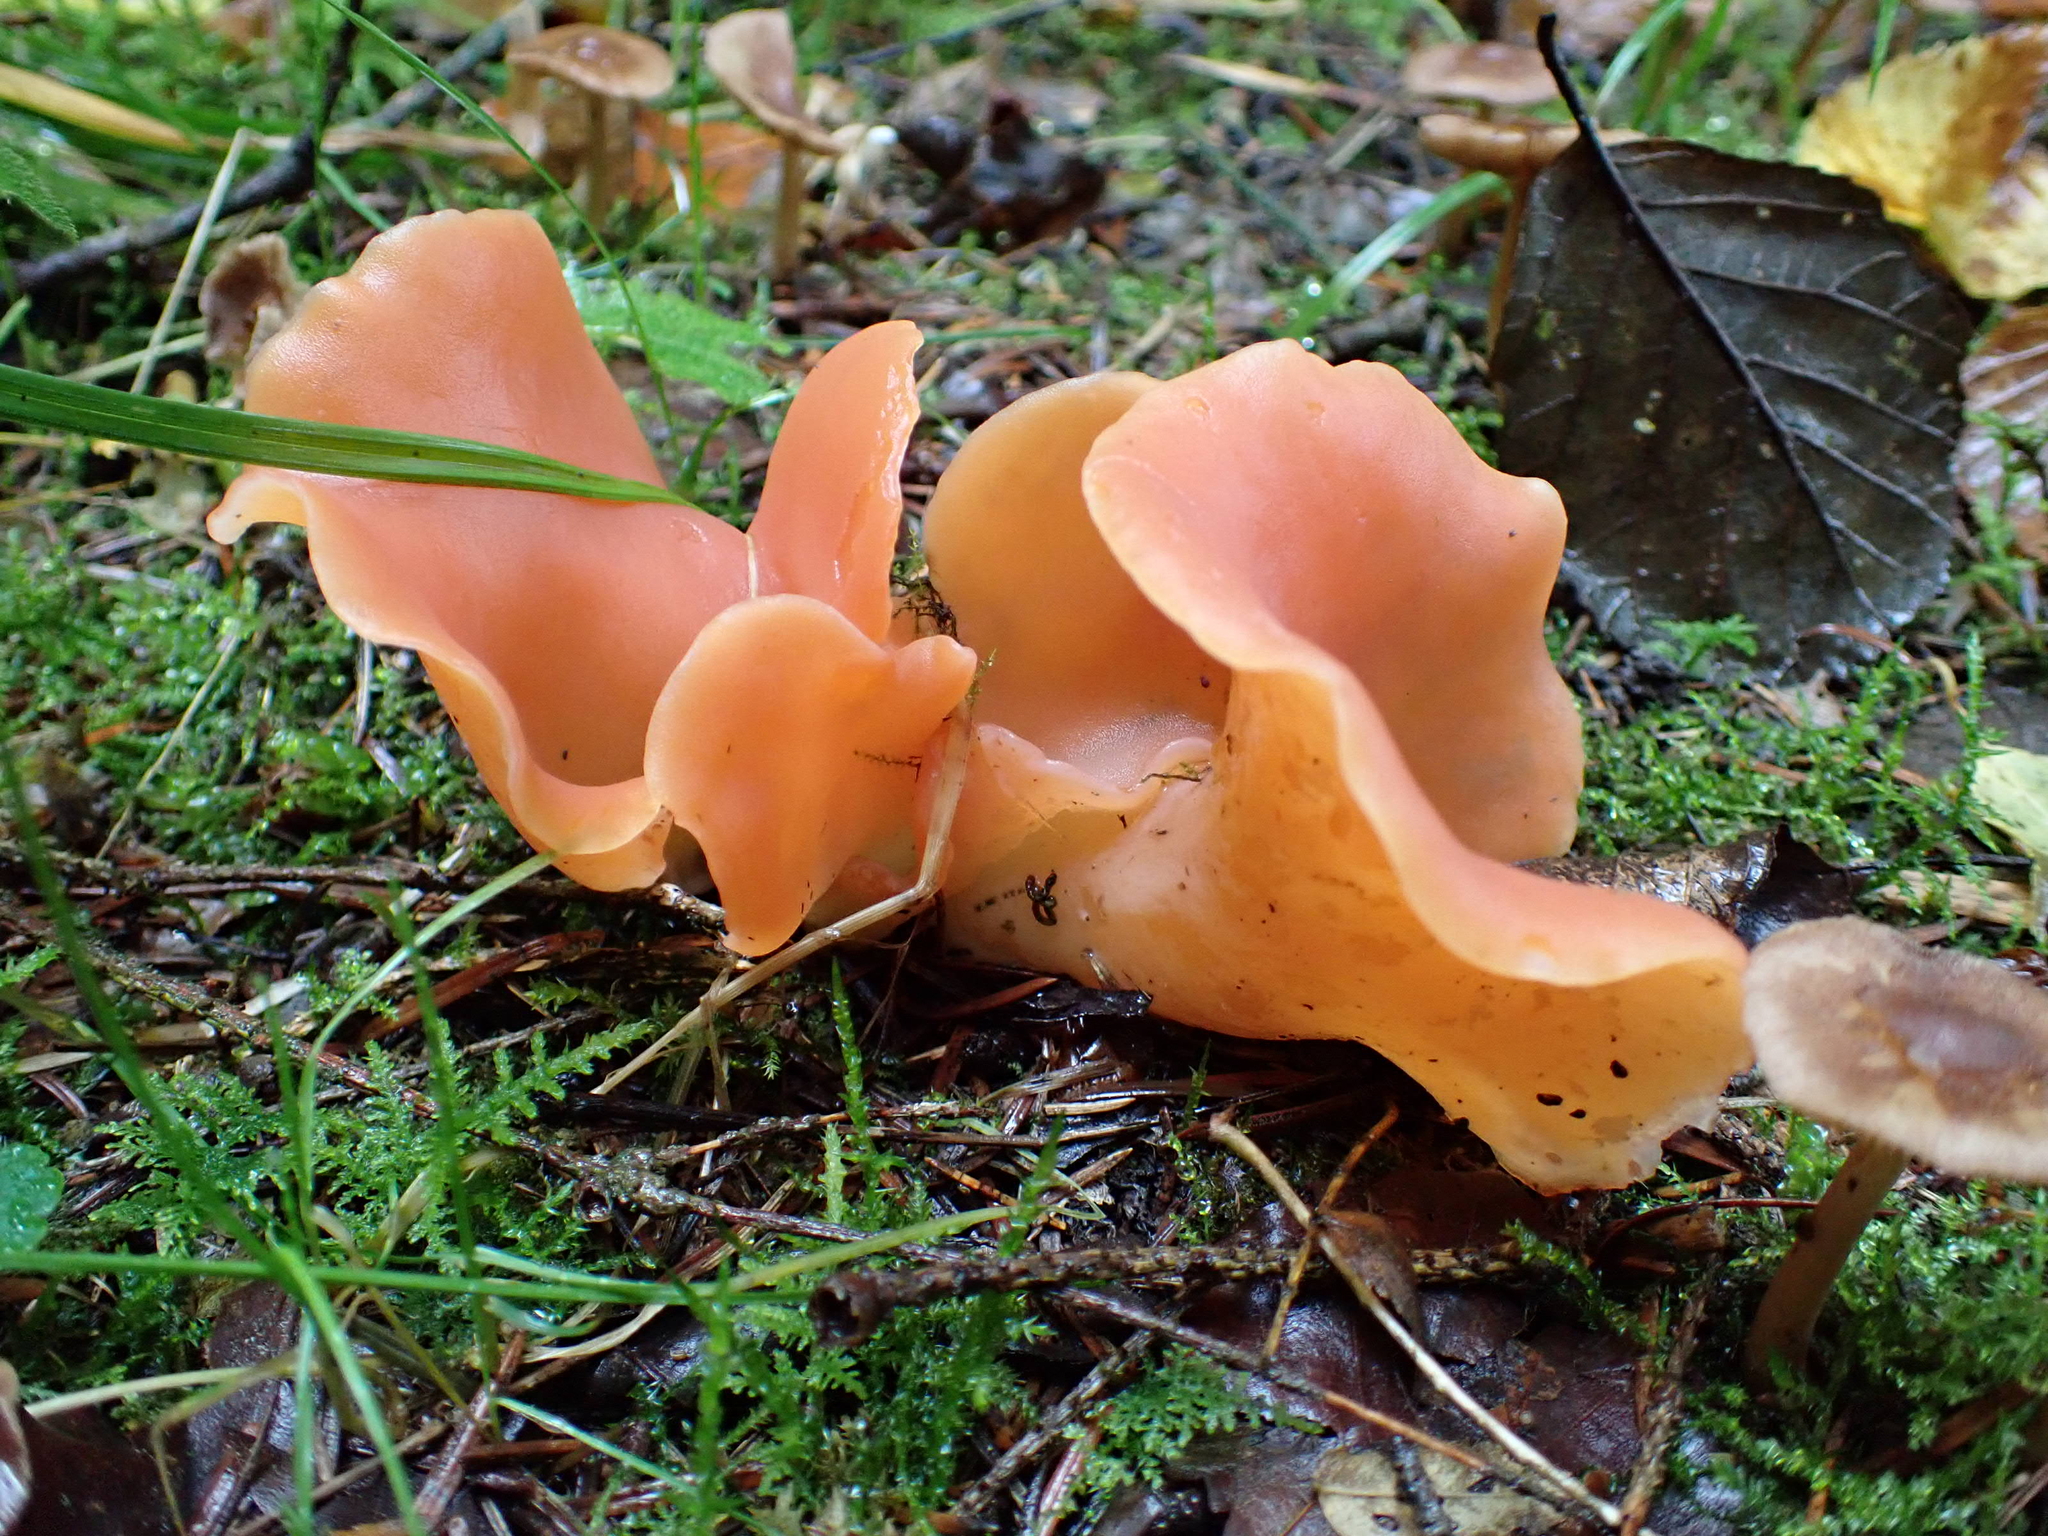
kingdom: Fungi
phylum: Basidiomycota
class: Agaricomycetes
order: Auriculariales
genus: Guepinia
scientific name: Guepinia helvelloides
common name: Salmon salad
